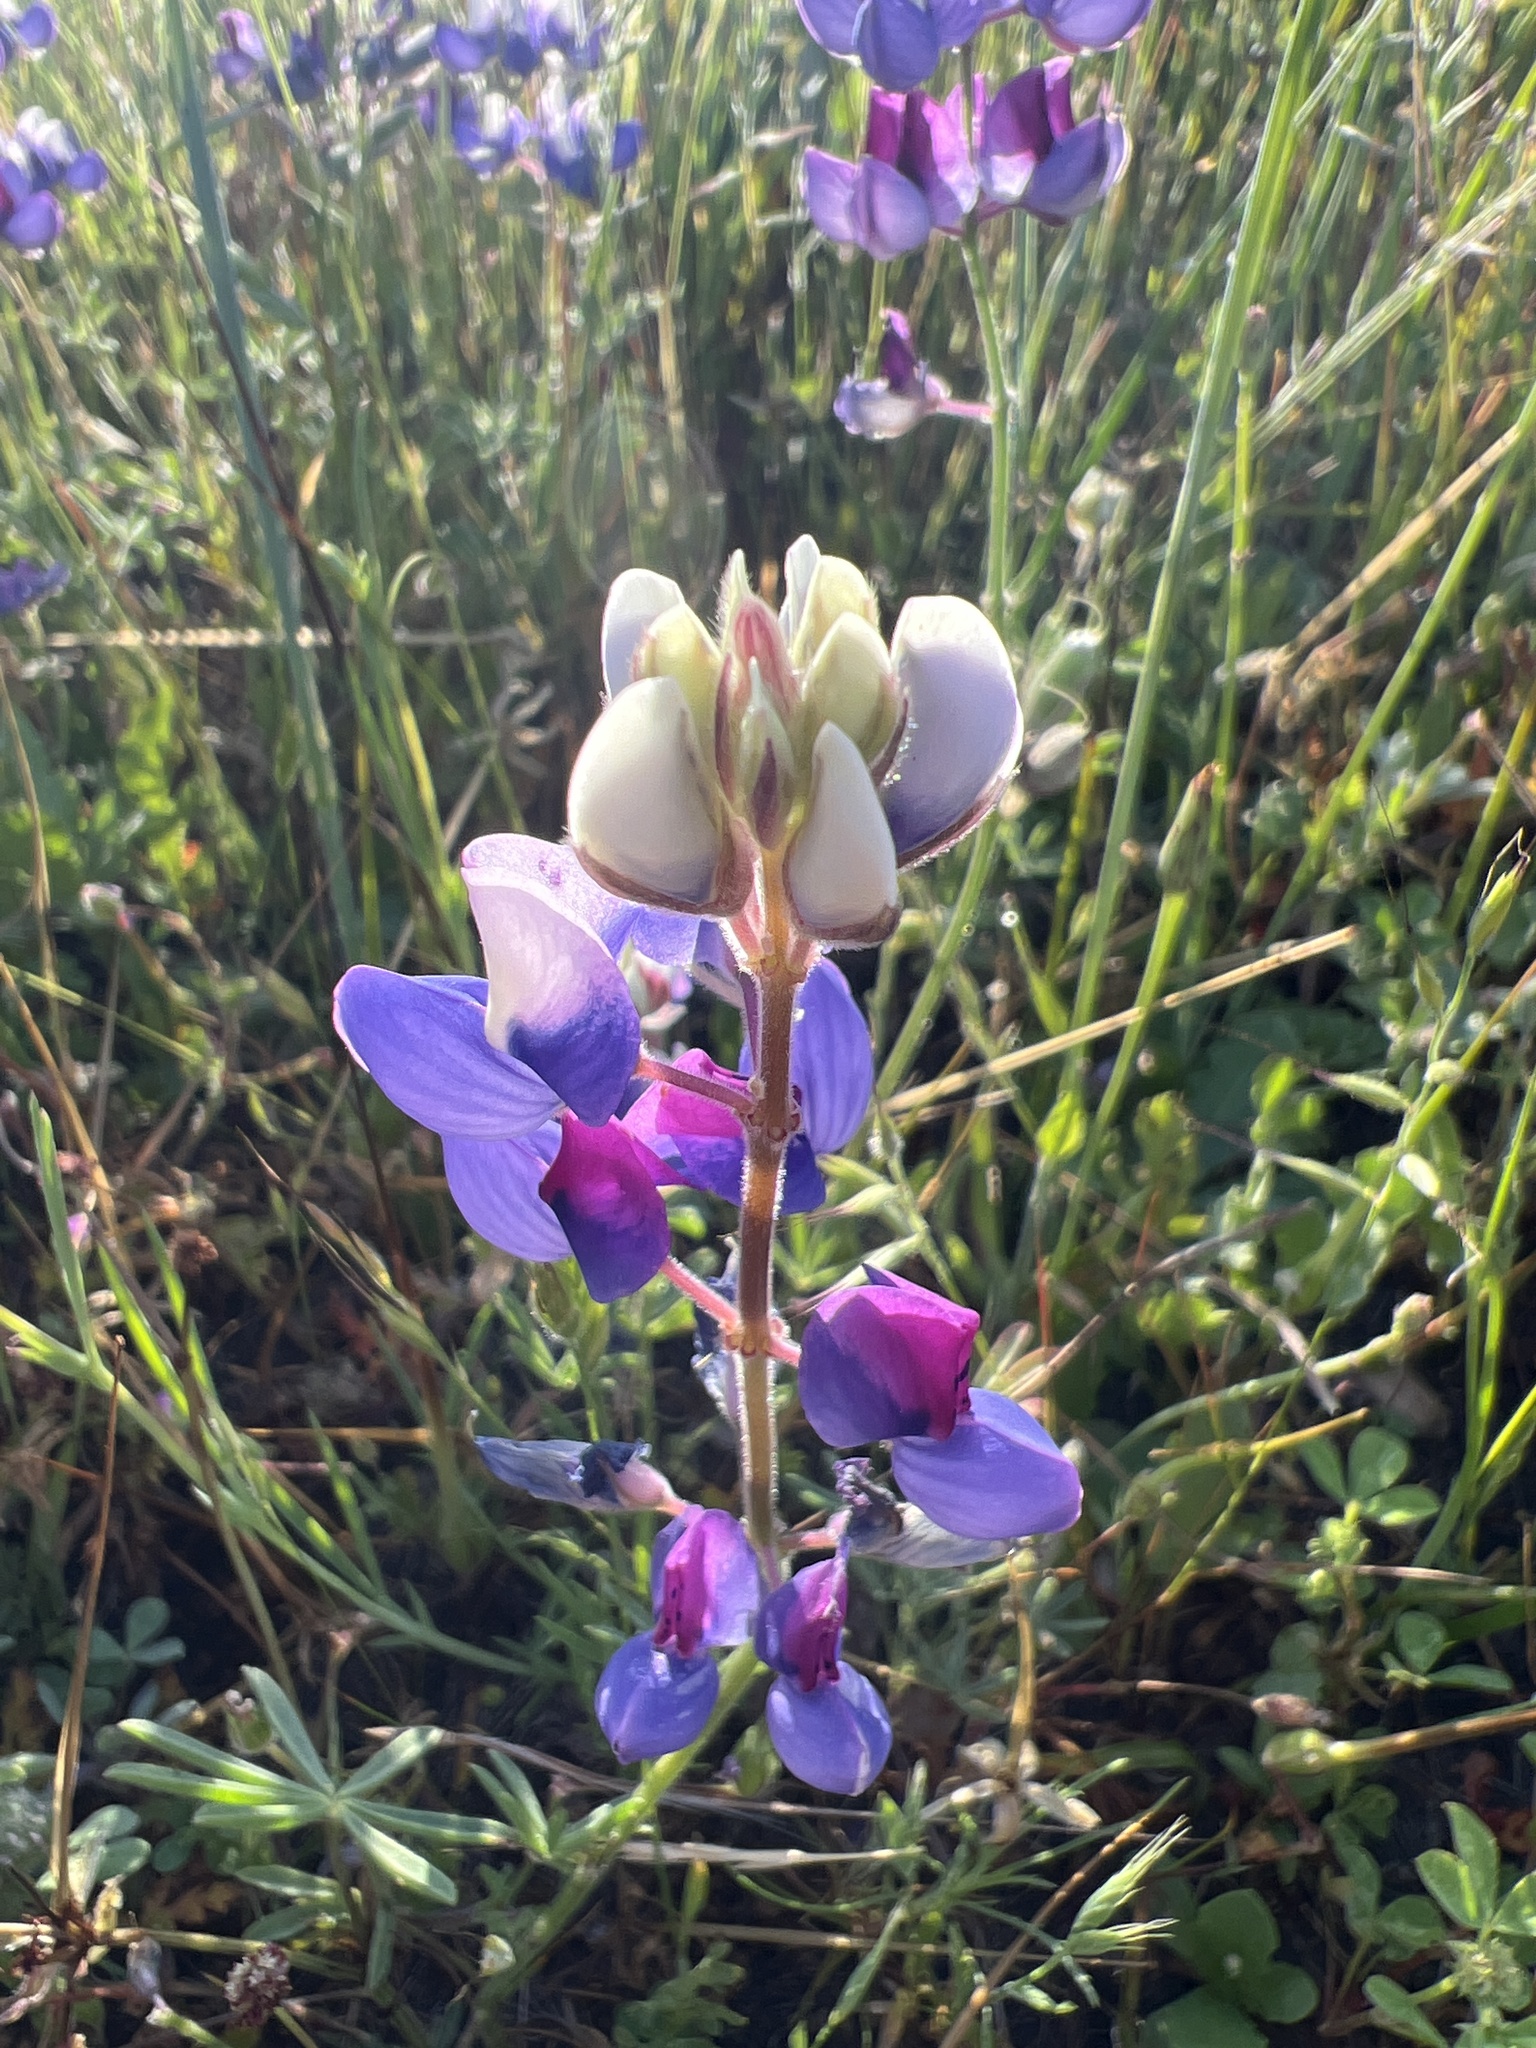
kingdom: Plantae
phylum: Tracheophyta
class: Magnoliopsida
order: Fabales
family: Fabaceae
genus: Lupinus
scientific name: Lupinus nanus
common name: Orean blue lupin
